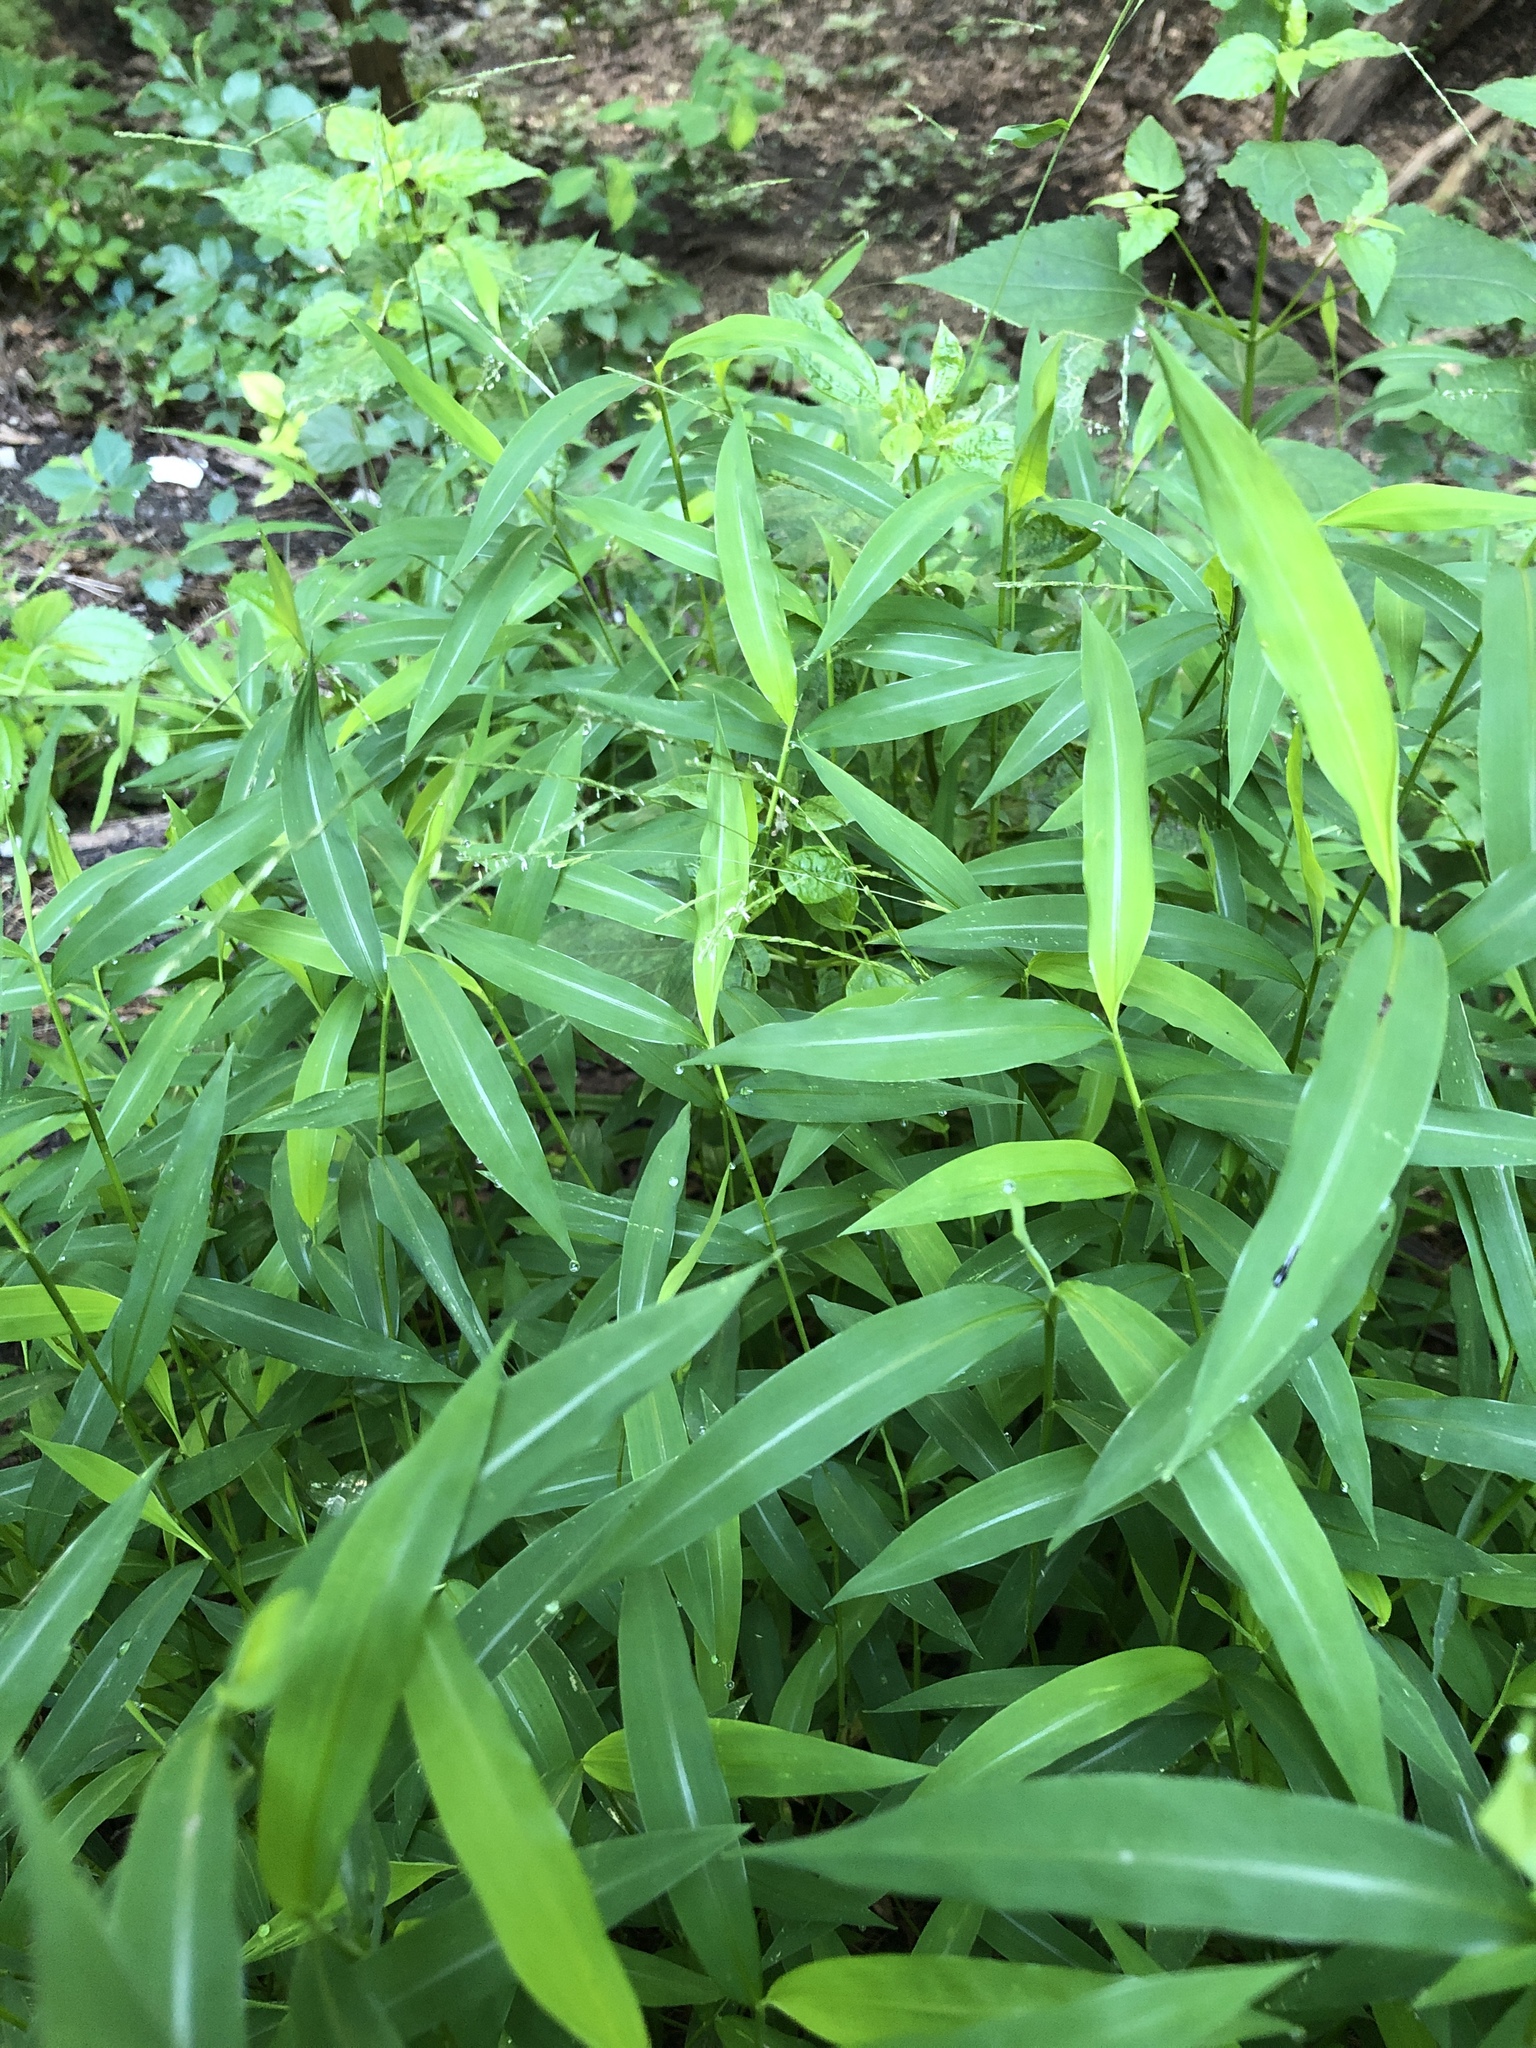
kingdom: Plantae
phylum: Tracheophyta
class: Liliopsida
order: Poales
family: Poaceae
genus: Microstegium
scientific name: Microstegium vimineum
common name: Japanese stiltgrass
